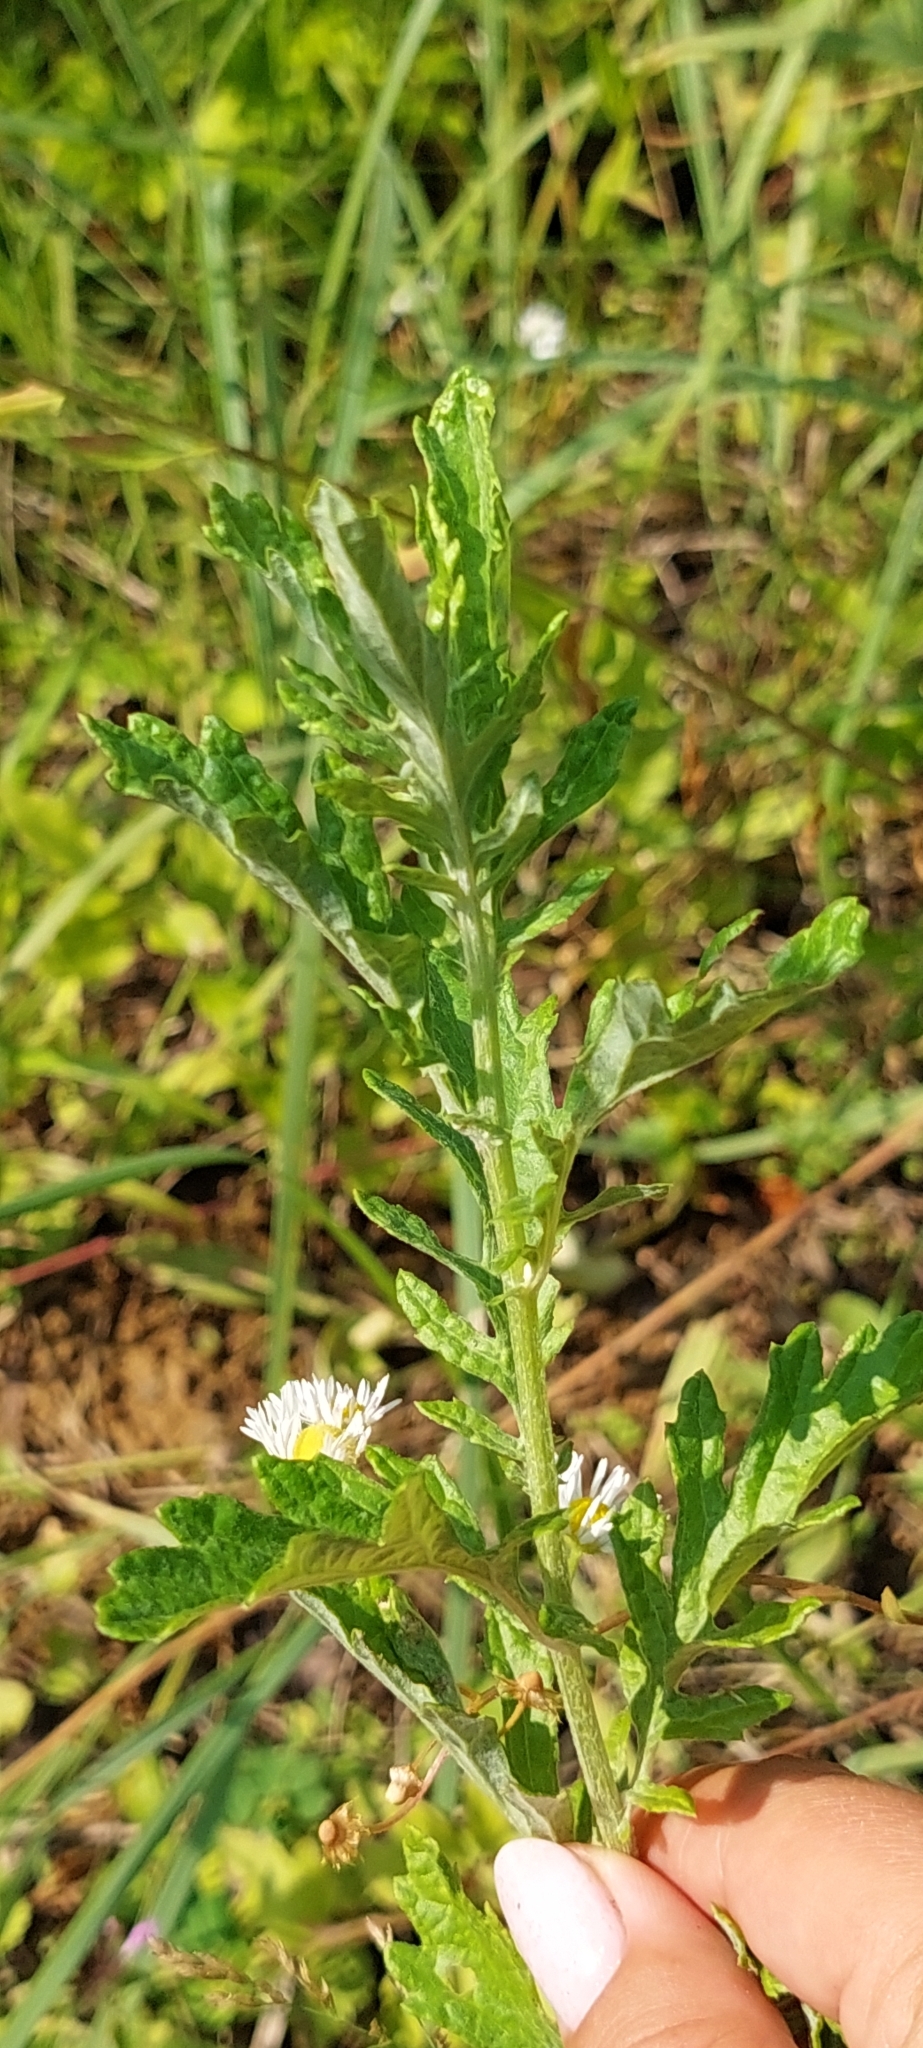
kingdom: Plantae
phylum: Tracheophyta
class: Magnoliopsida
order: Asterales
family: Asteraceae
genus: Jacobaea
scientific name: Jacobaea erucifolia
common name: Hoary ragwort
